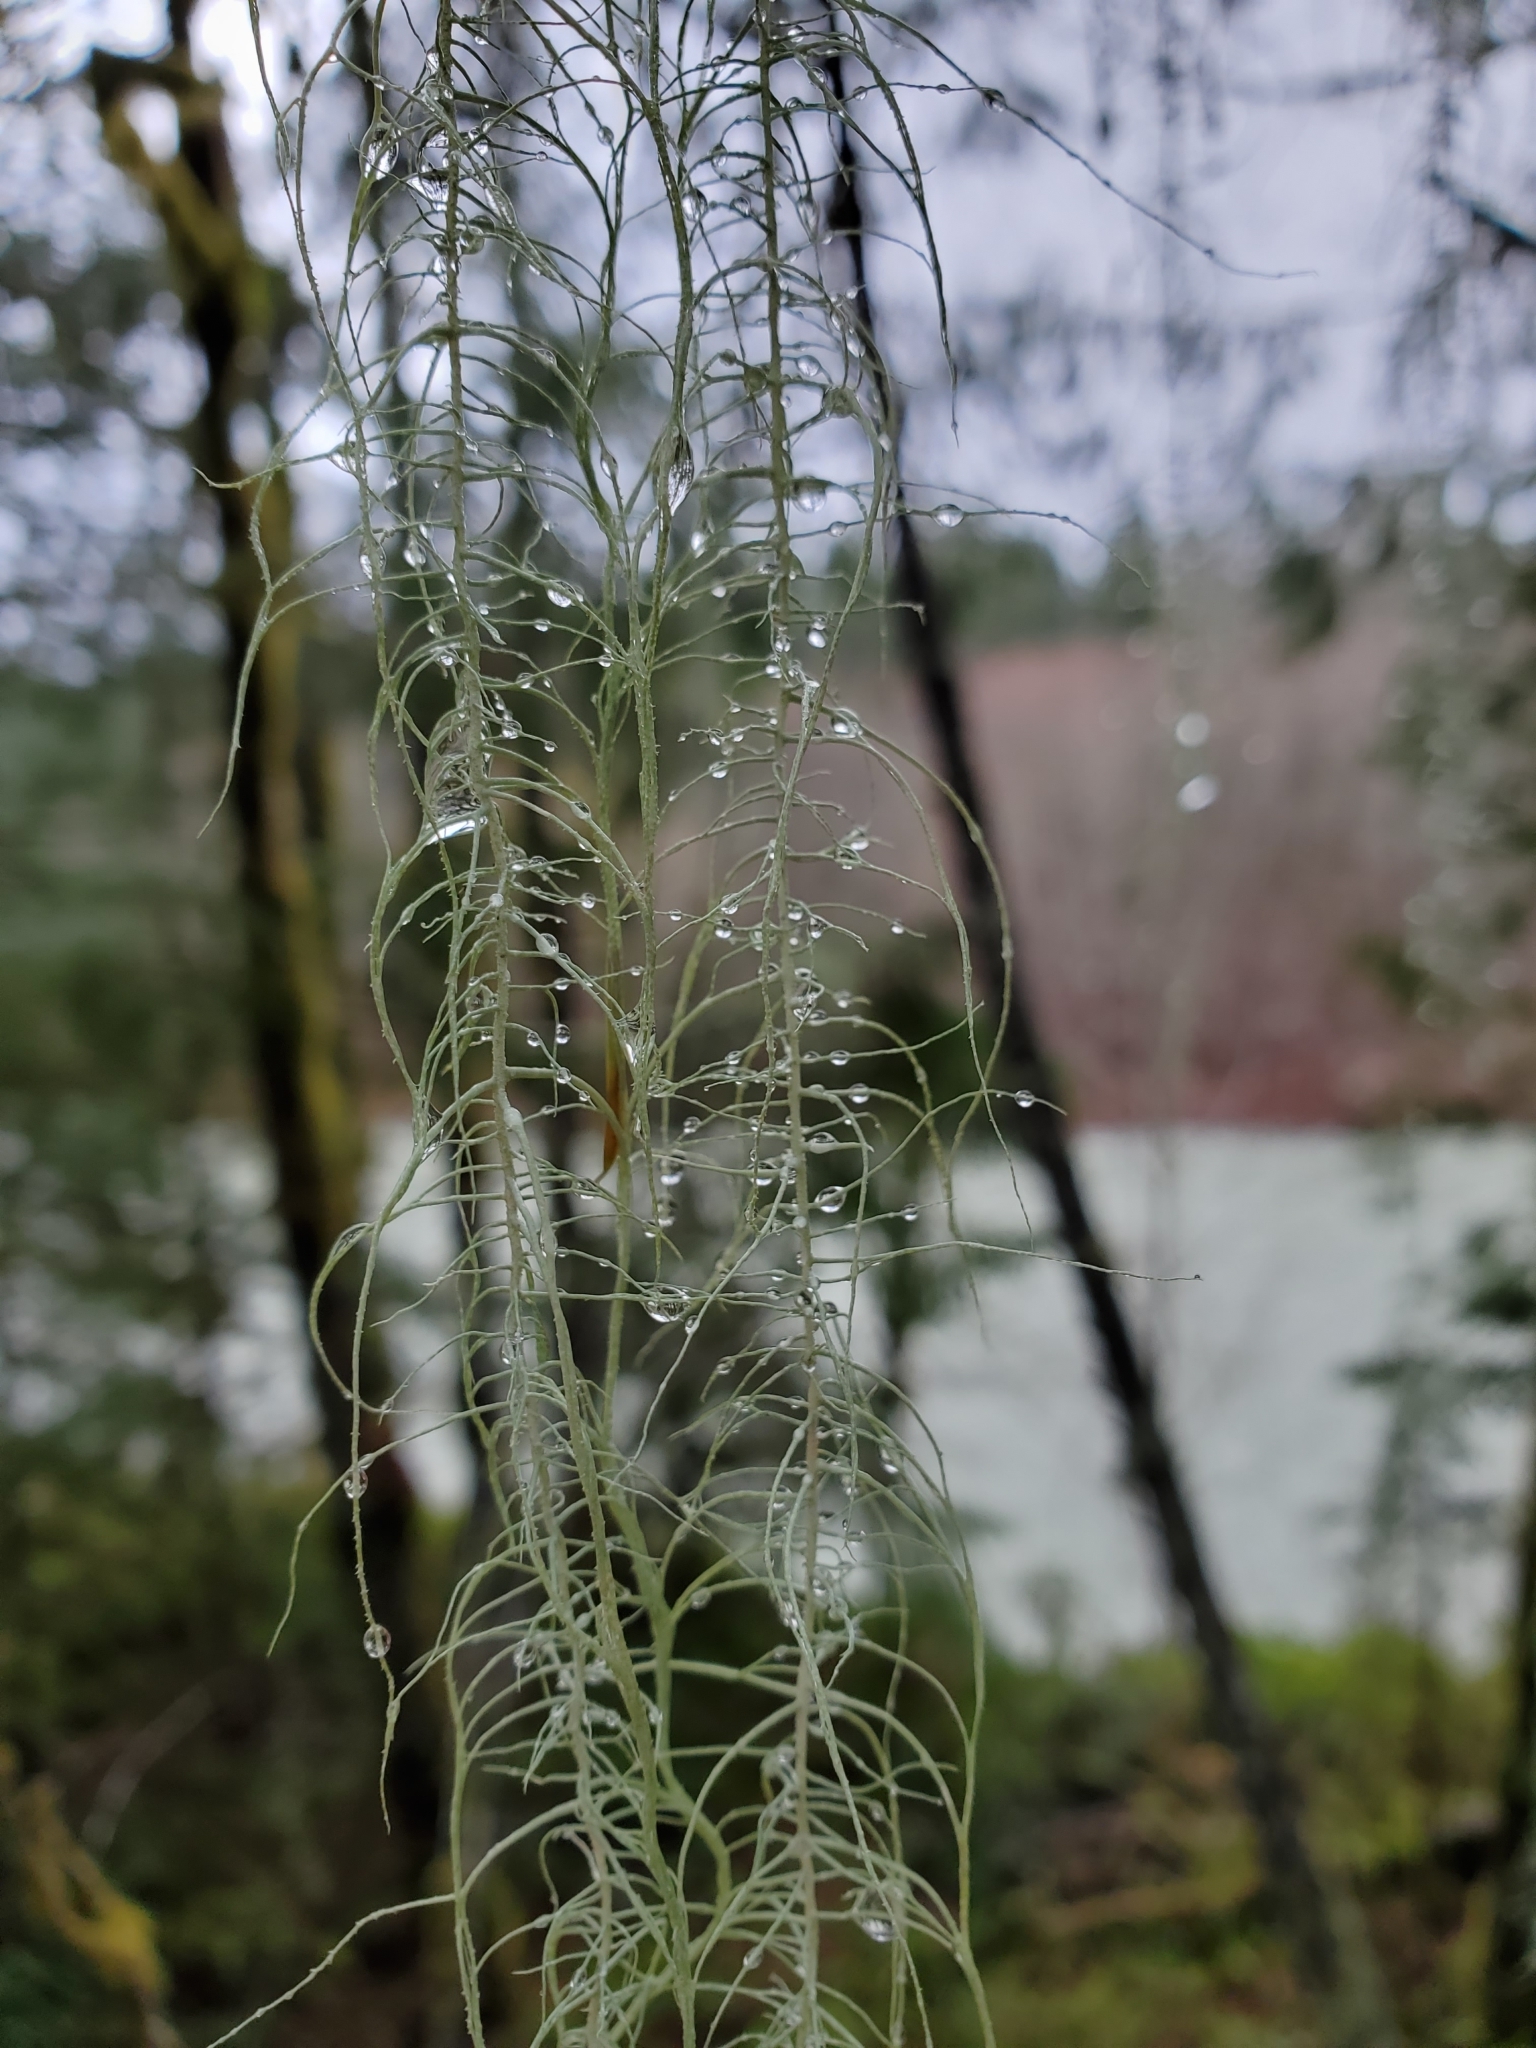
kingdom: Fungi
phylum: Ascomycota
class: Lecanoromycetes
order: Lecanorales
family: Parmeliaceae
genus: Dolichousnea
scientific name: Dolichousnea longissima
